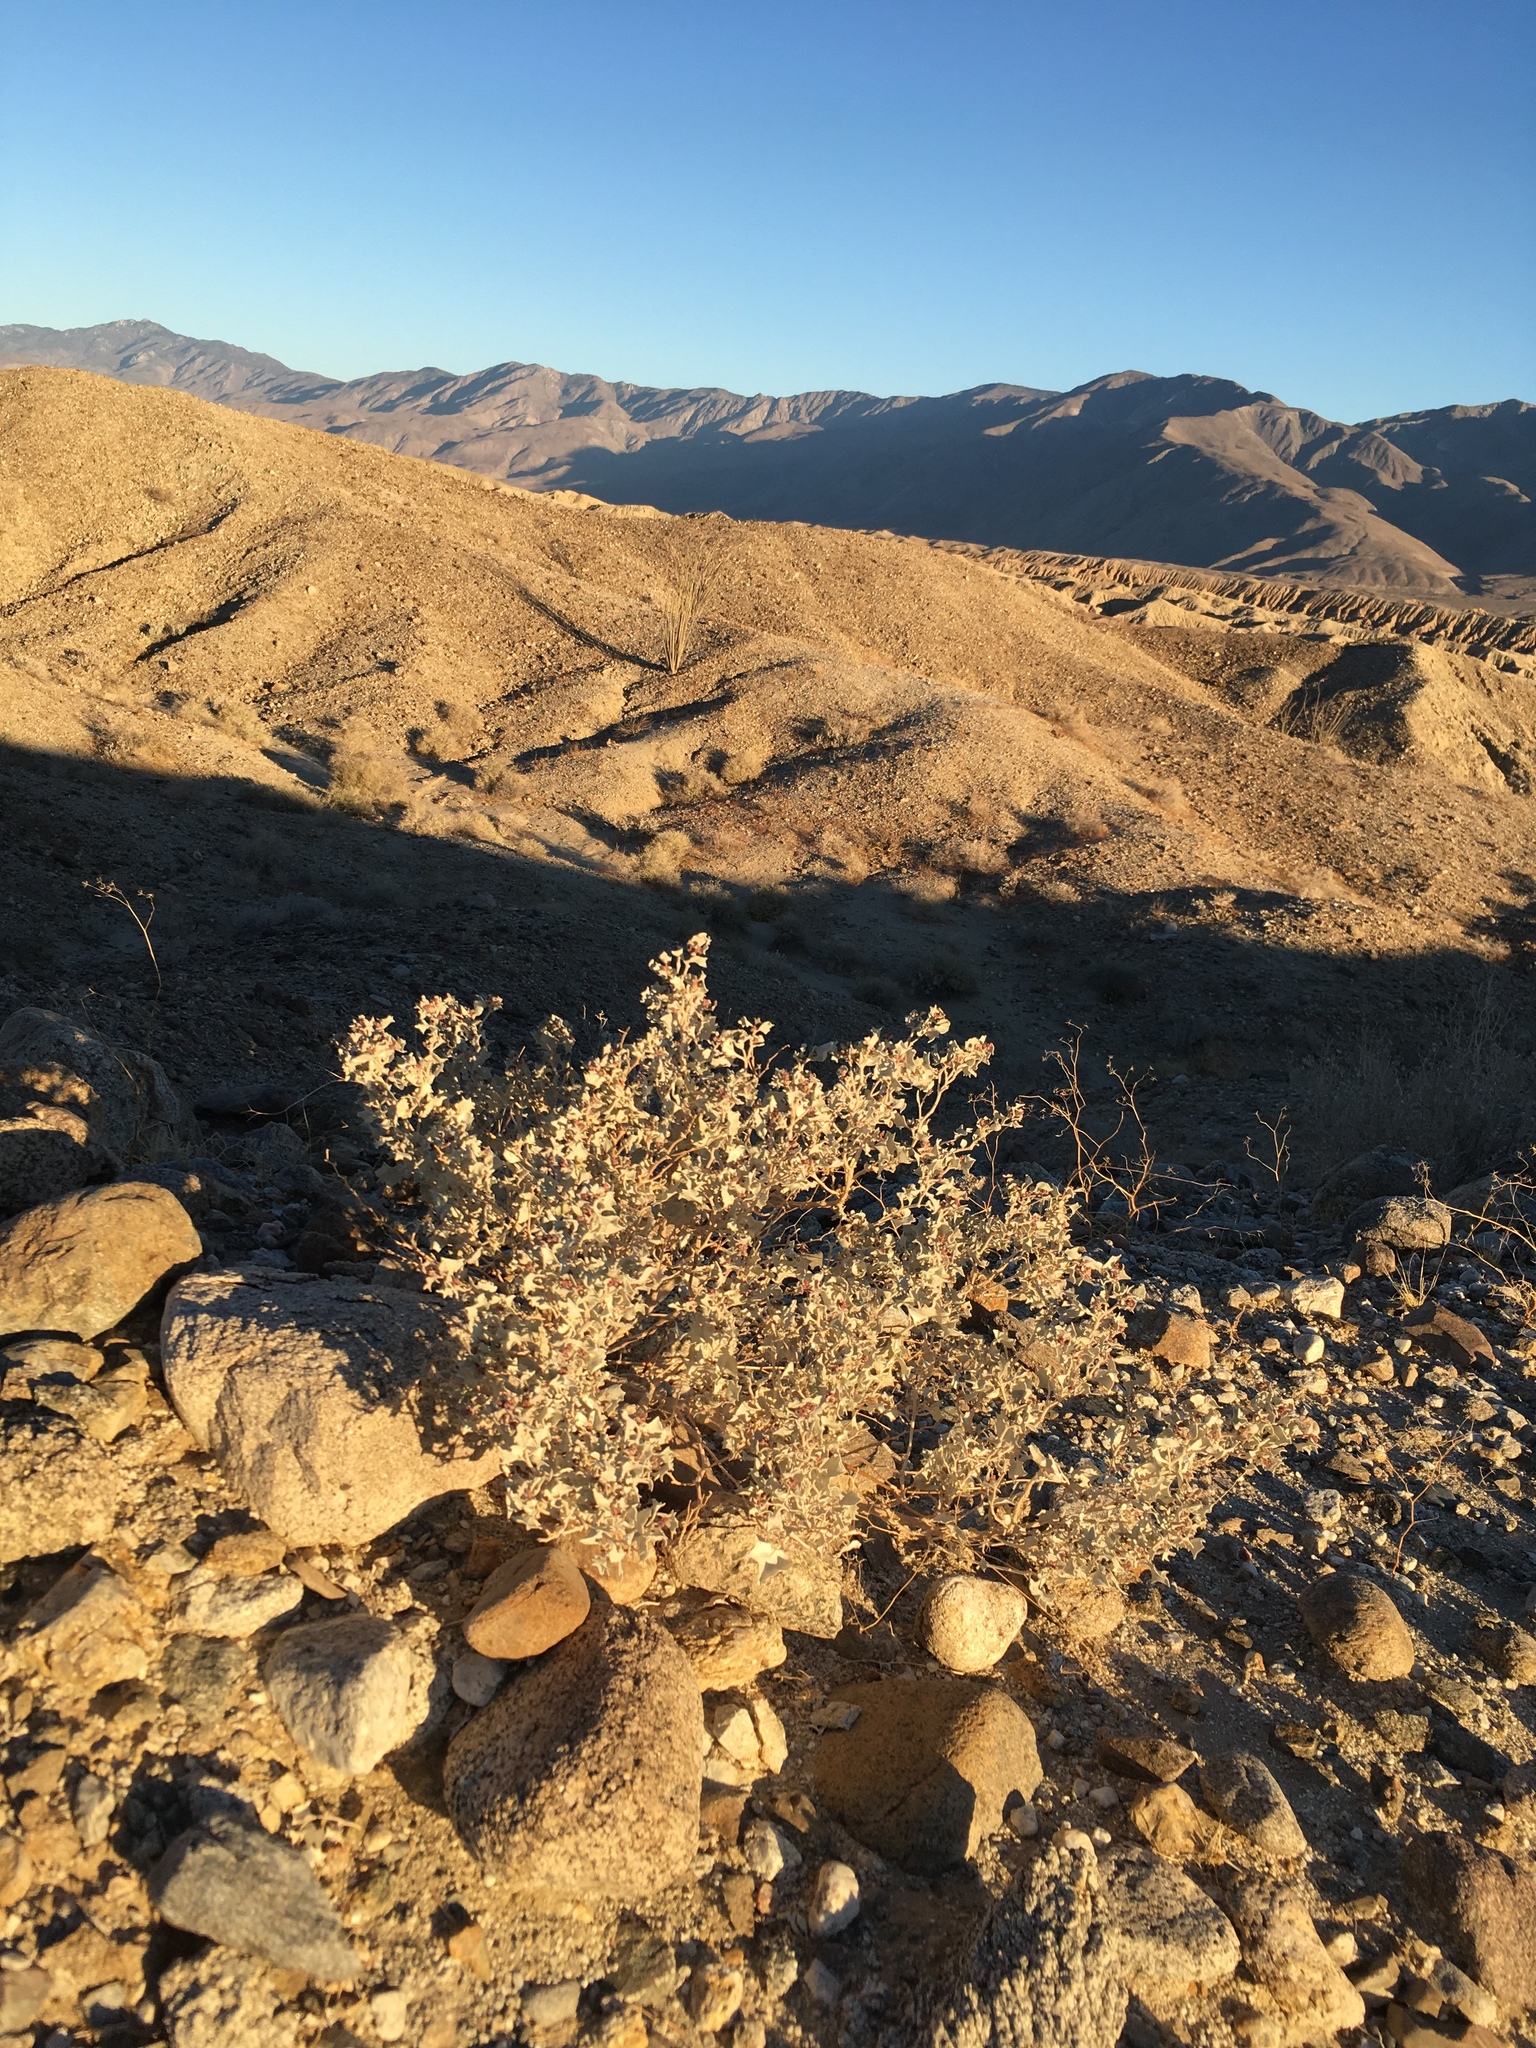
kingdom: Plantae
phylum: Tracheophyta
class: Magnoliopsida
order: Caryophyllales
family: Amaranthaceae
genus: Atriplex
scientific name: Atriplex hymenelytra
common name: Desert-holly
